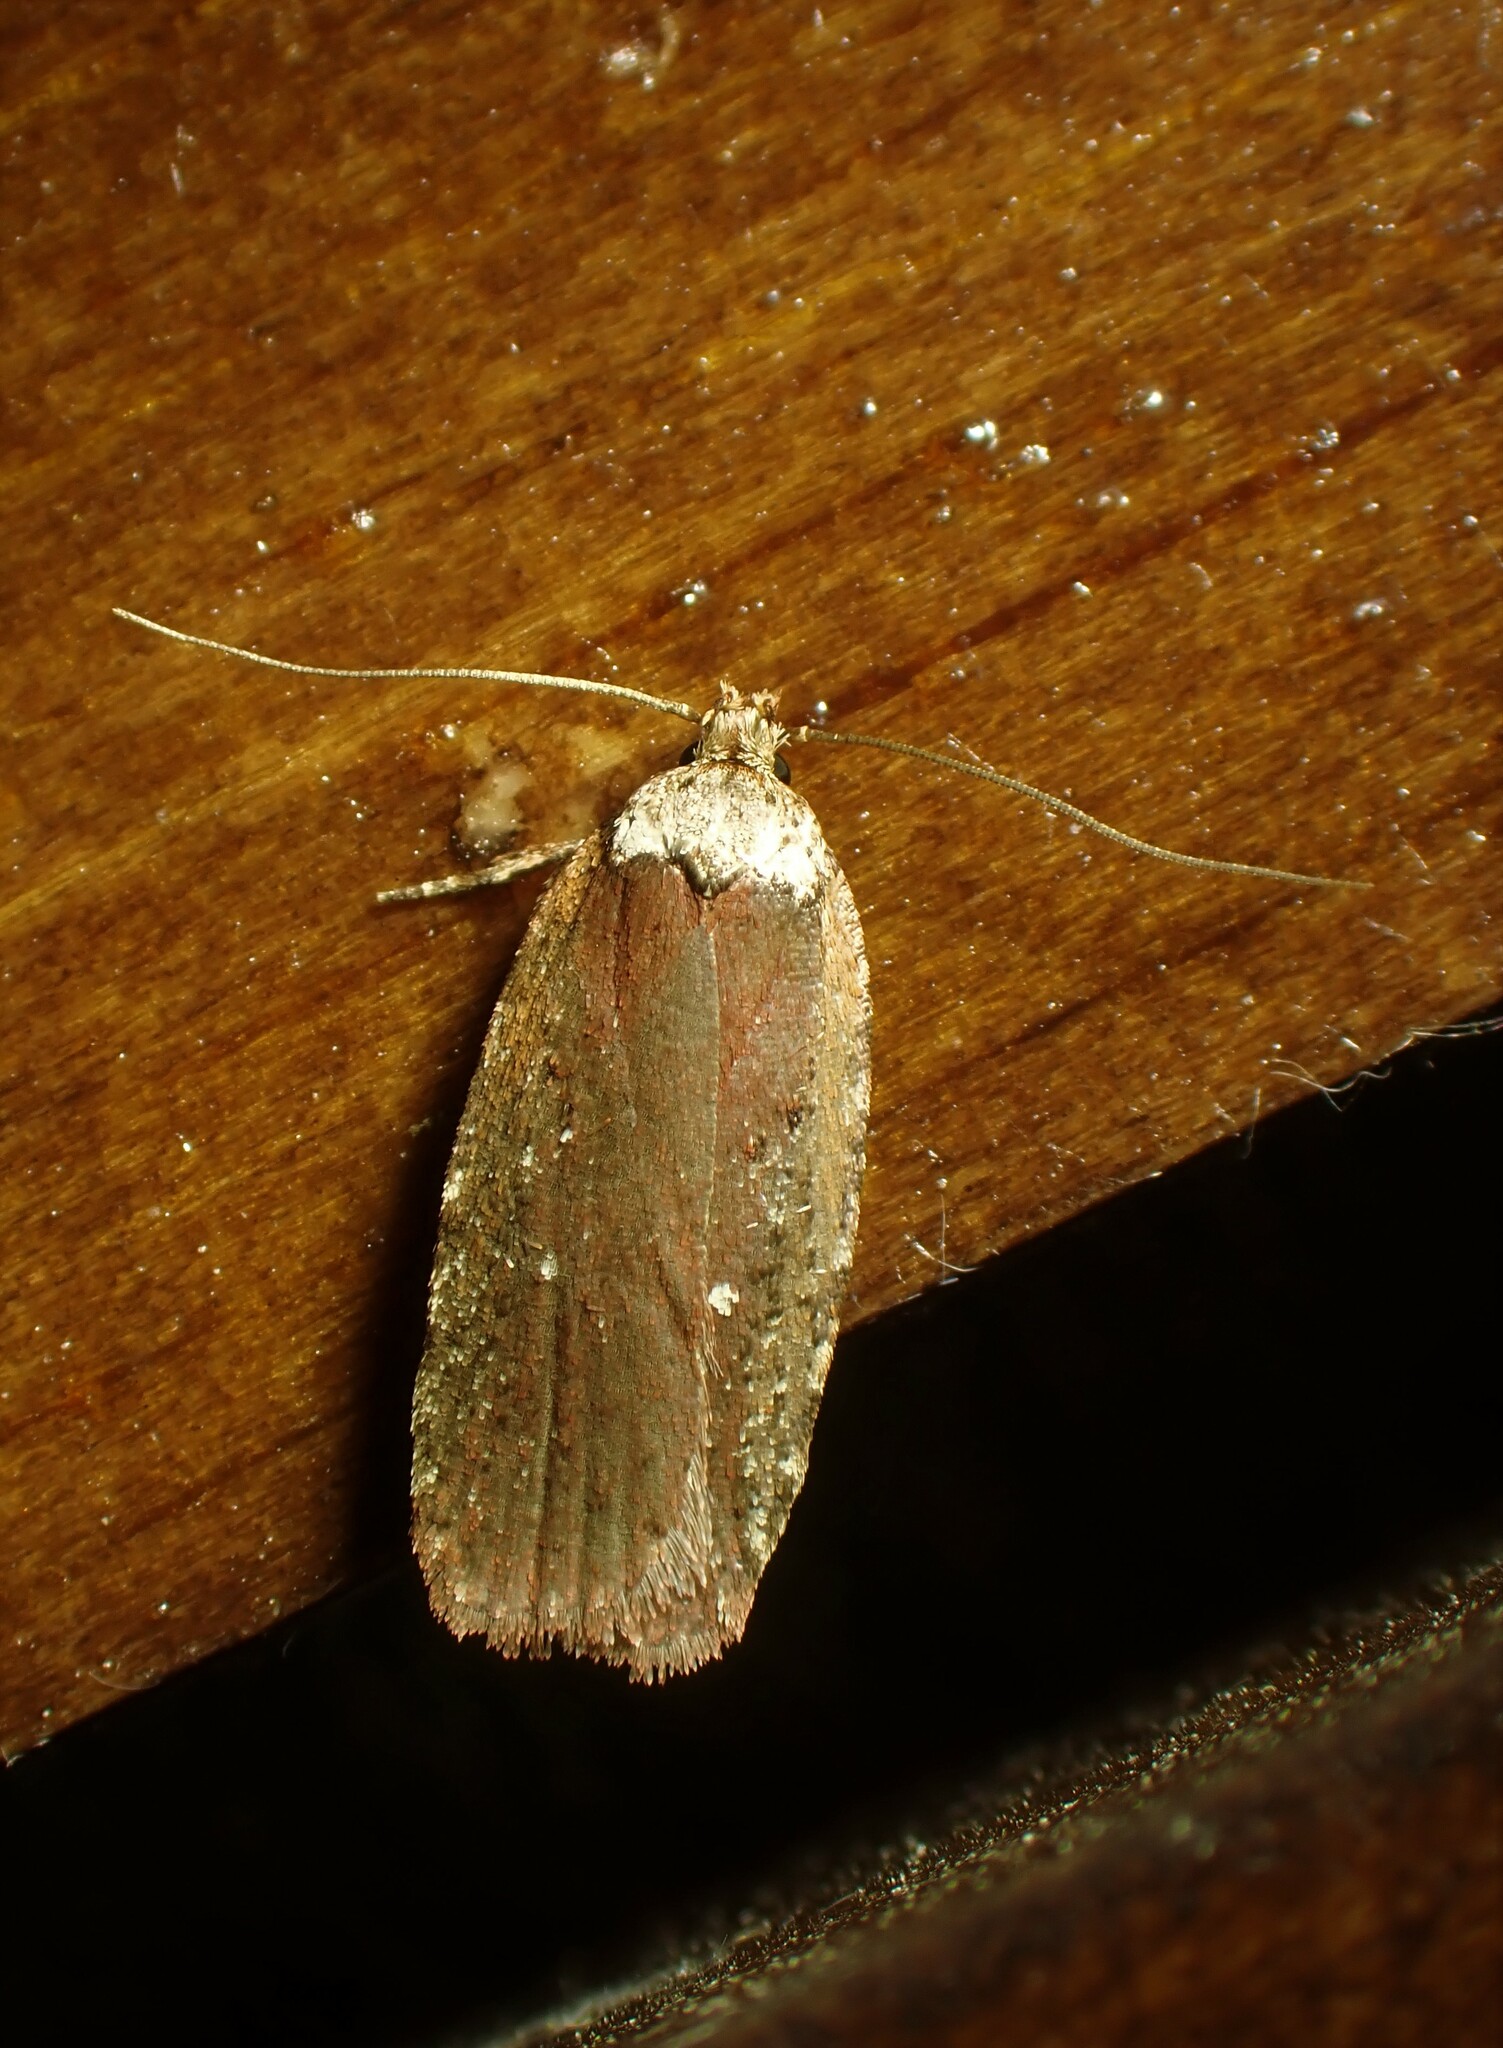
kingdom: Animalia
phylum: Arthropoda
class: Insecta
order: Lepidoptera
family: Depressariidae
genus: Agonopterix
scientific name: Agonopterix walsinghamella
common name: Walsingham's agonopterix moth
